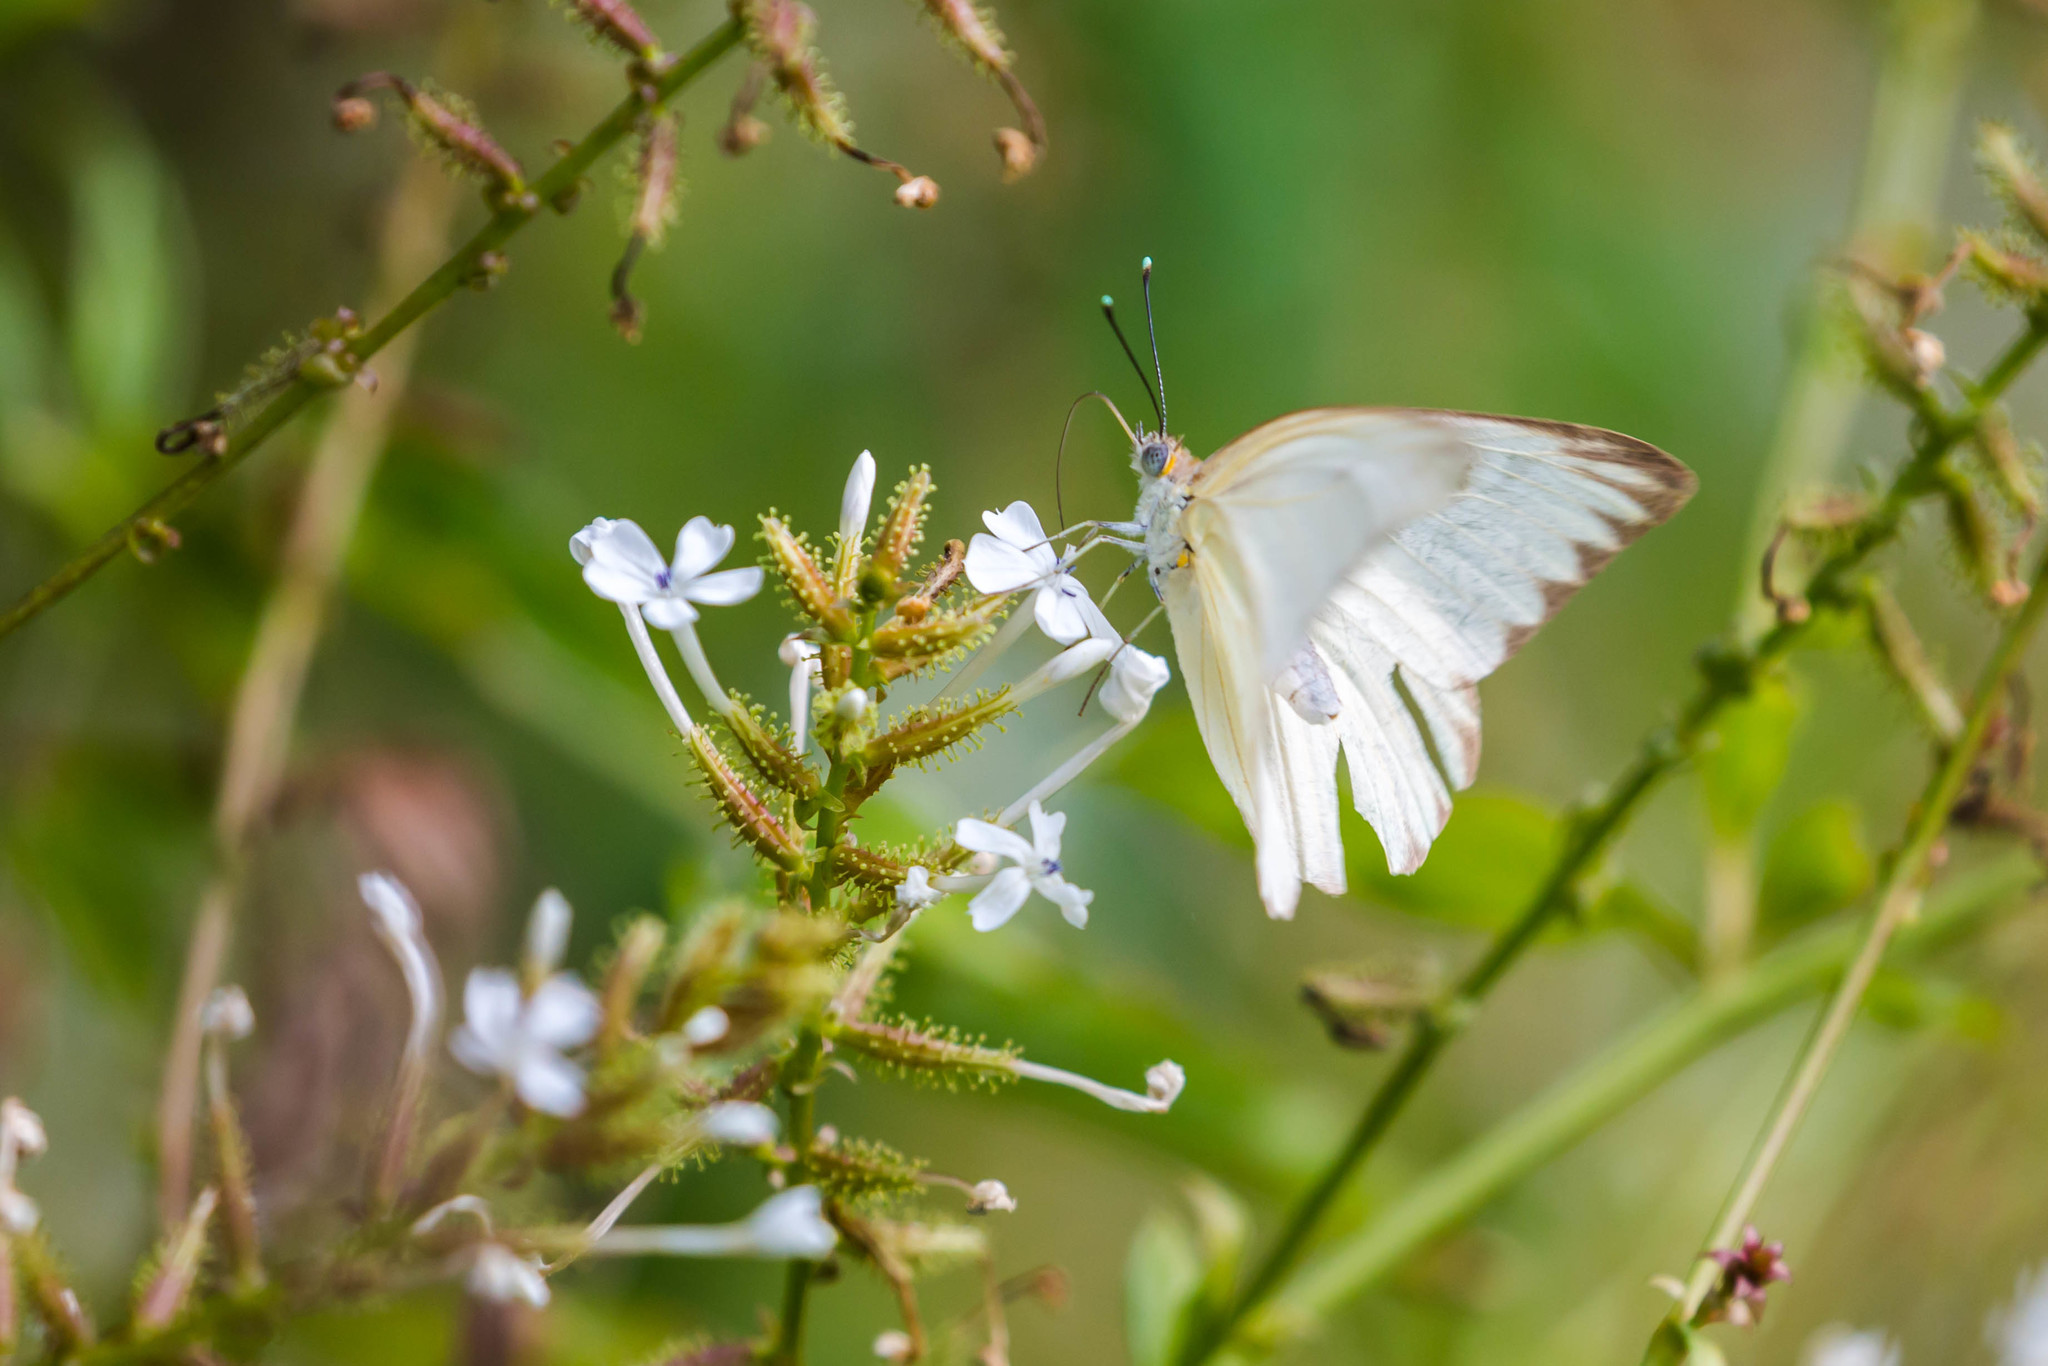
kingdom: Animalia
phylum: Arthropoda
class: Insecta
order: Lepidoptera
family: Pieridae
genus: Ascia
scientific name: Ascia monuste
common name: Great southern white
